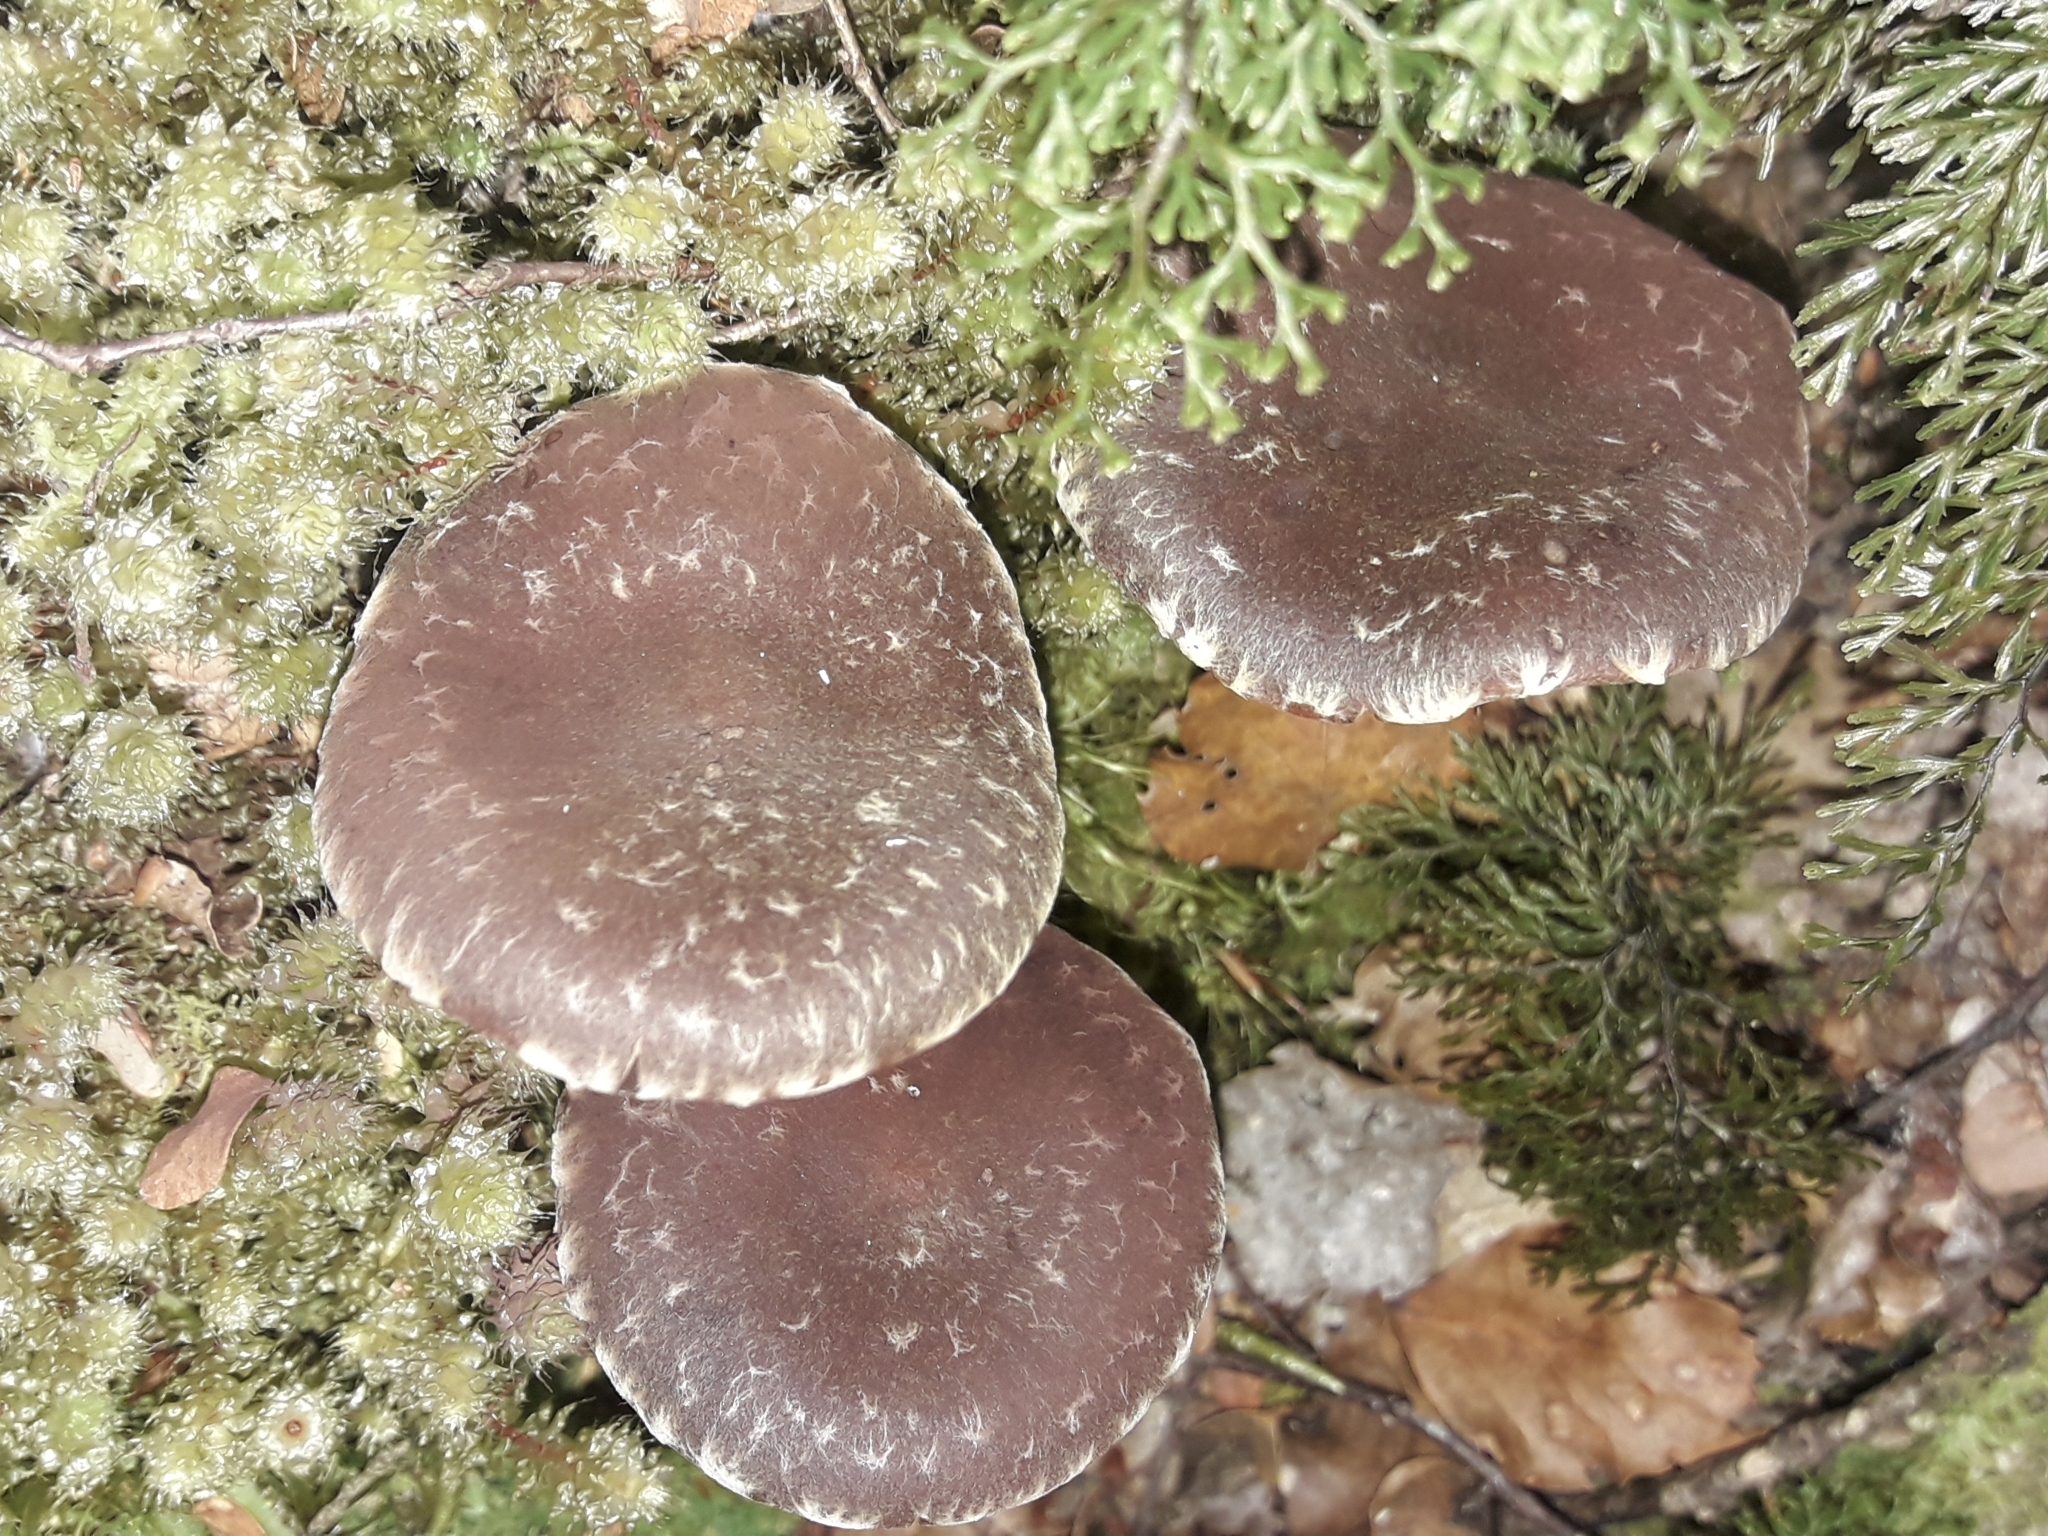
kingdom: Fungi
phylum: Basidiomycota
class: Agaricomycetes
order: Agaricales
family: Strophariaceae
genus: Hypholoma
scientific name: Hypholoma brunneum
